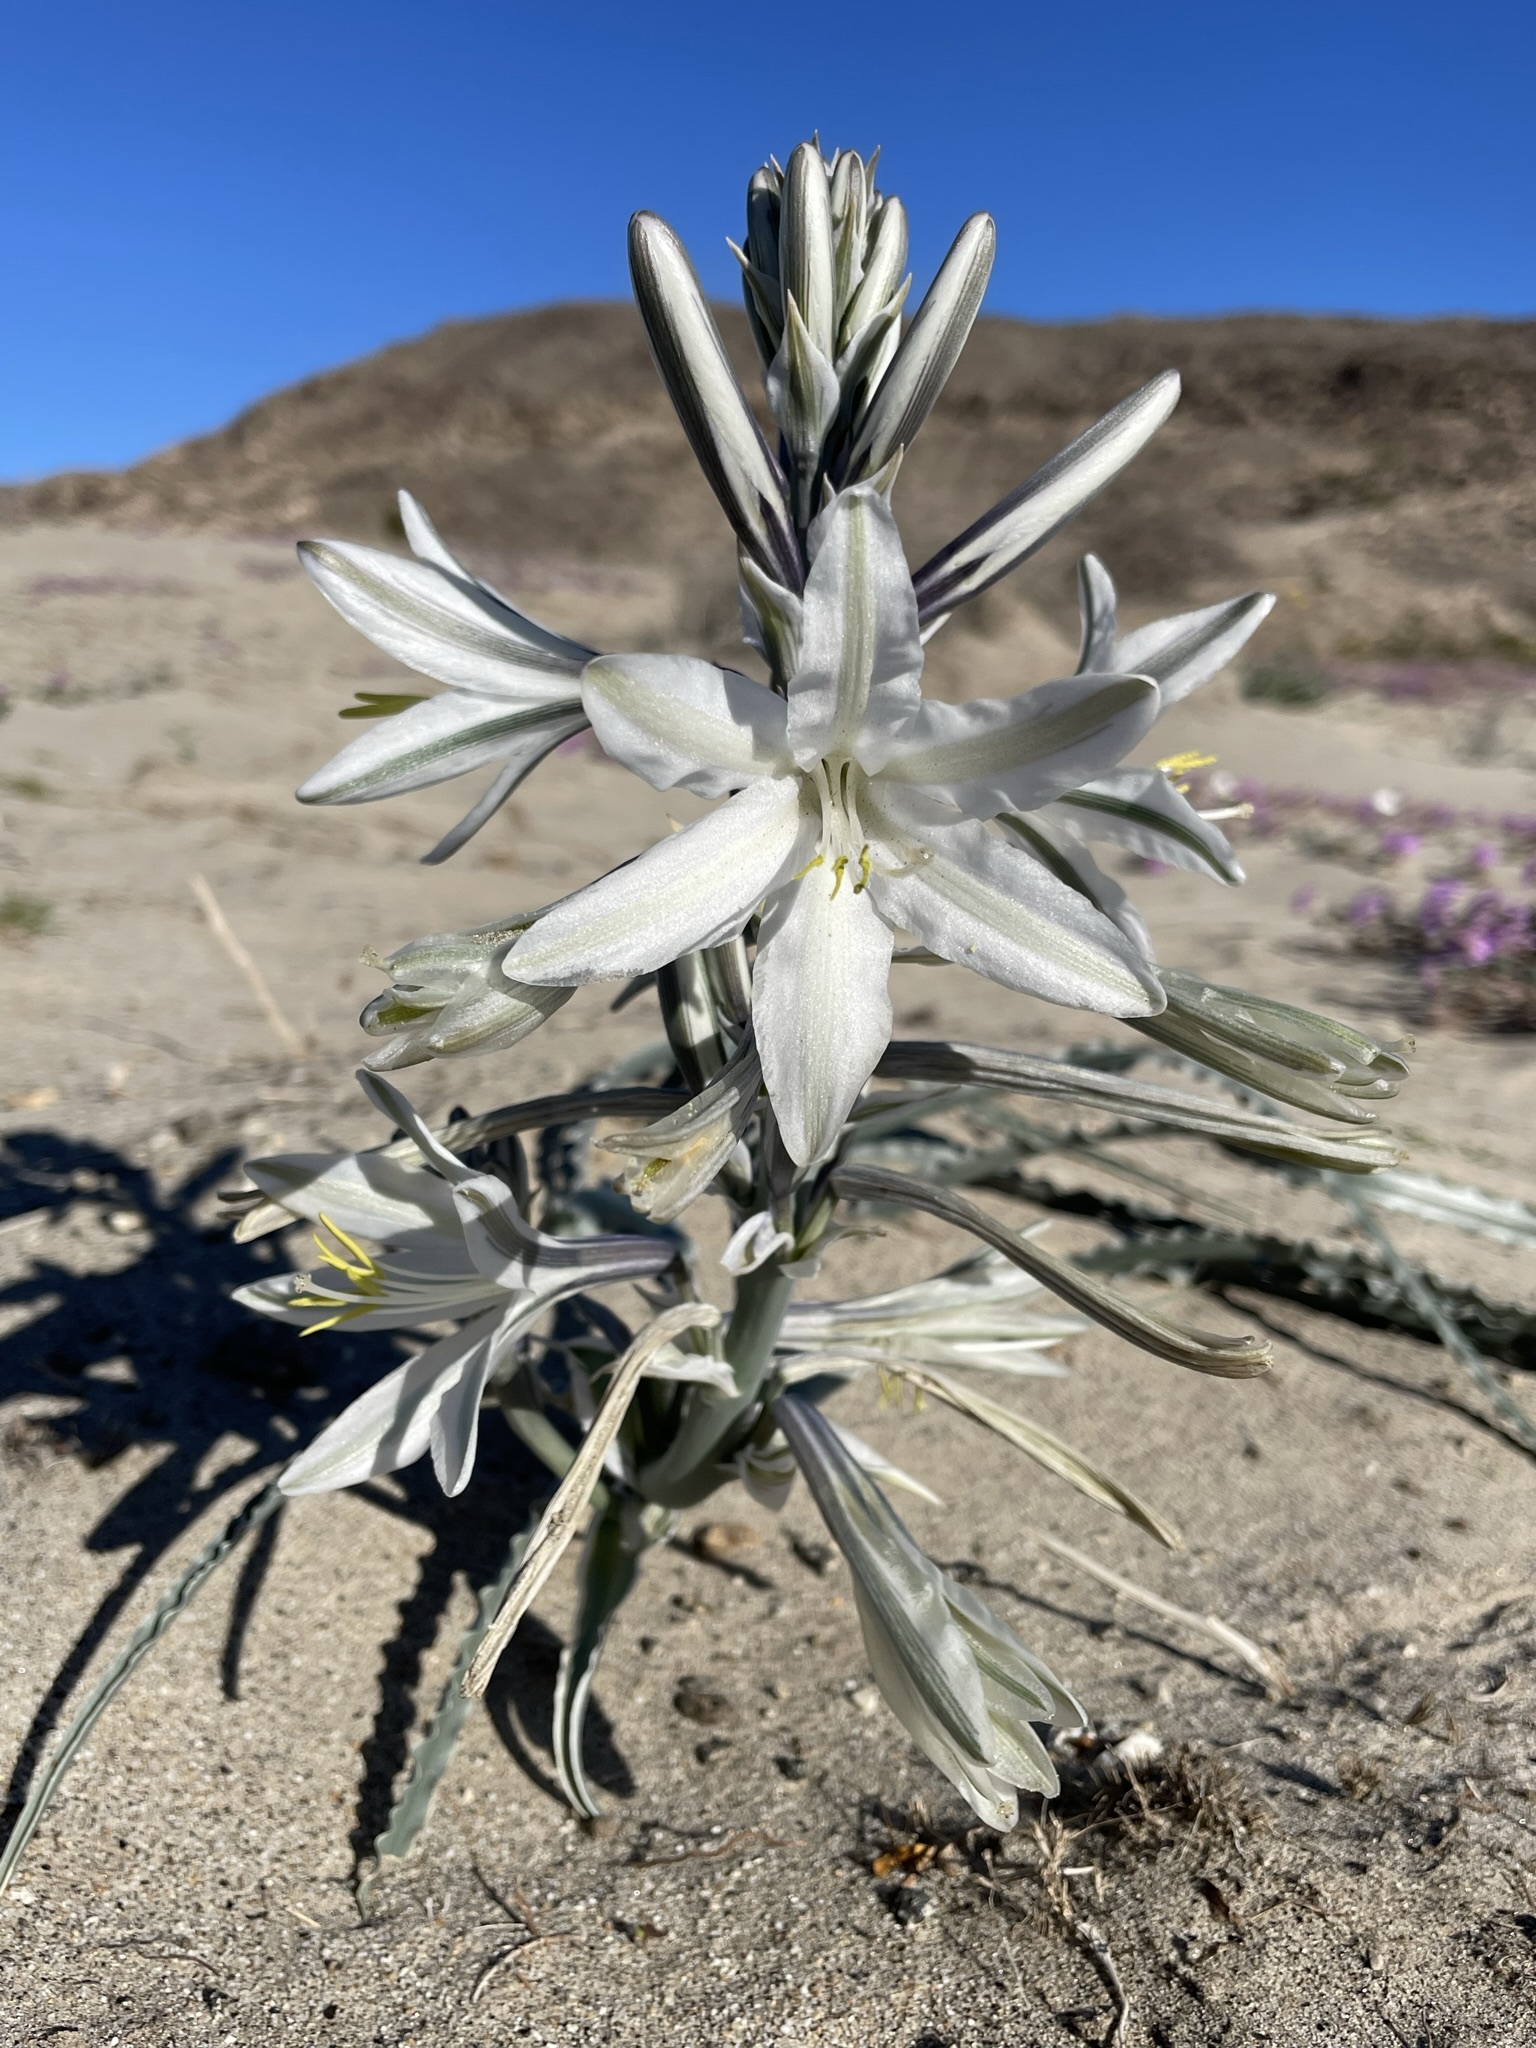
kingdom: Plantae
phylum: Tracheophyta
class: Liliopsida
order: Asparagales
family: Asparagaceae
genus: Hesperocallis
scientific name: Hesperocallis undulata
